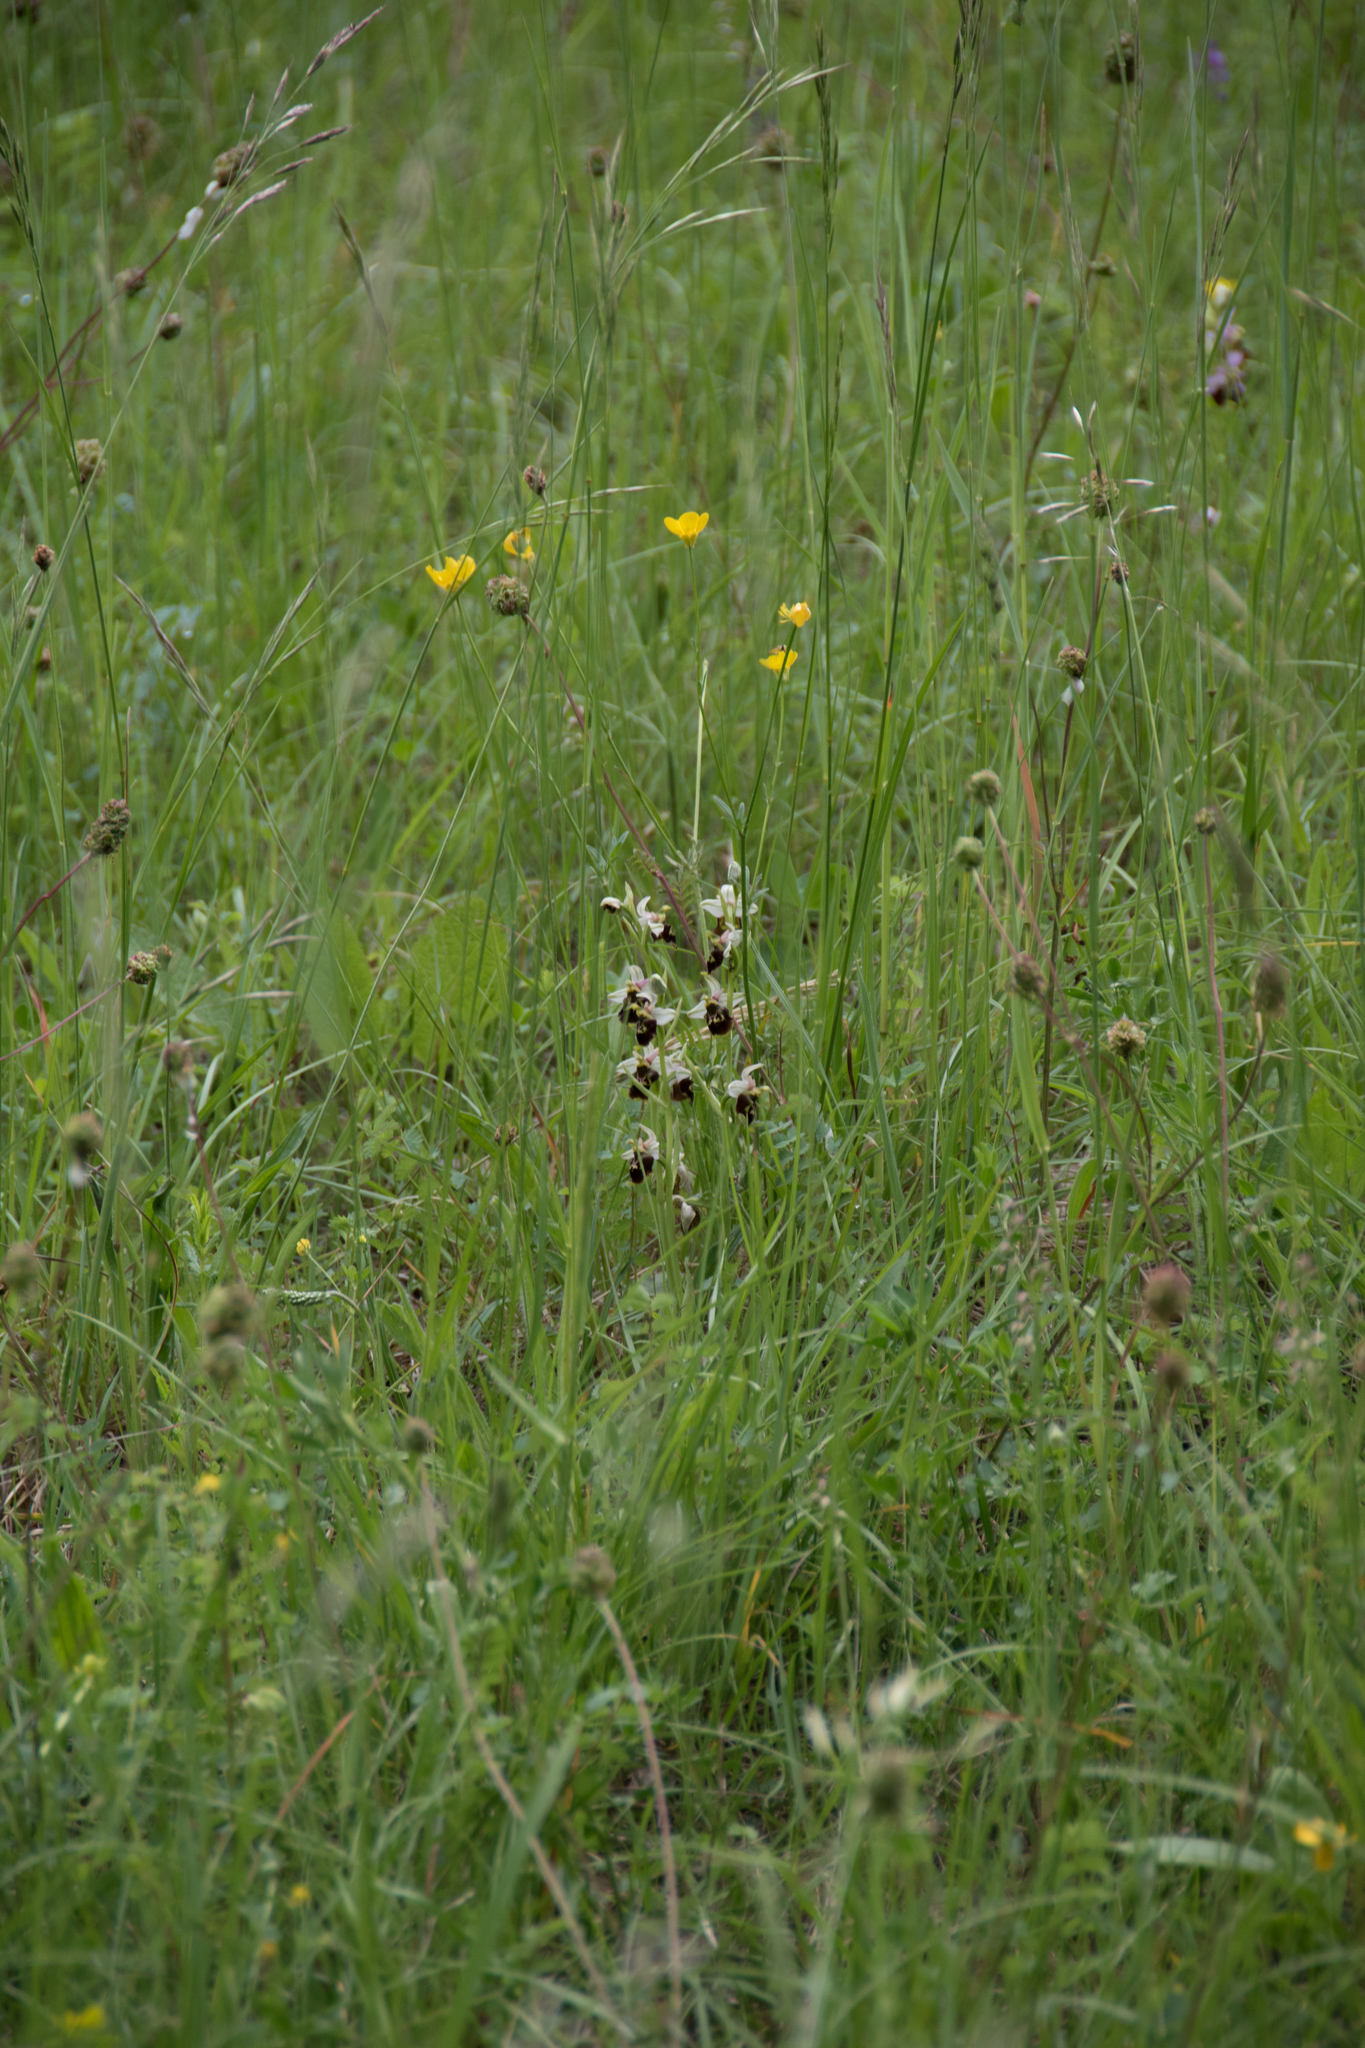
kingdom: Plantae
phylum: Tracheophyta
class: Liliopsida
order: Asparagales
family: Orchidaceae
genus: Ophrys
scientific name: Ophrys holosericea
